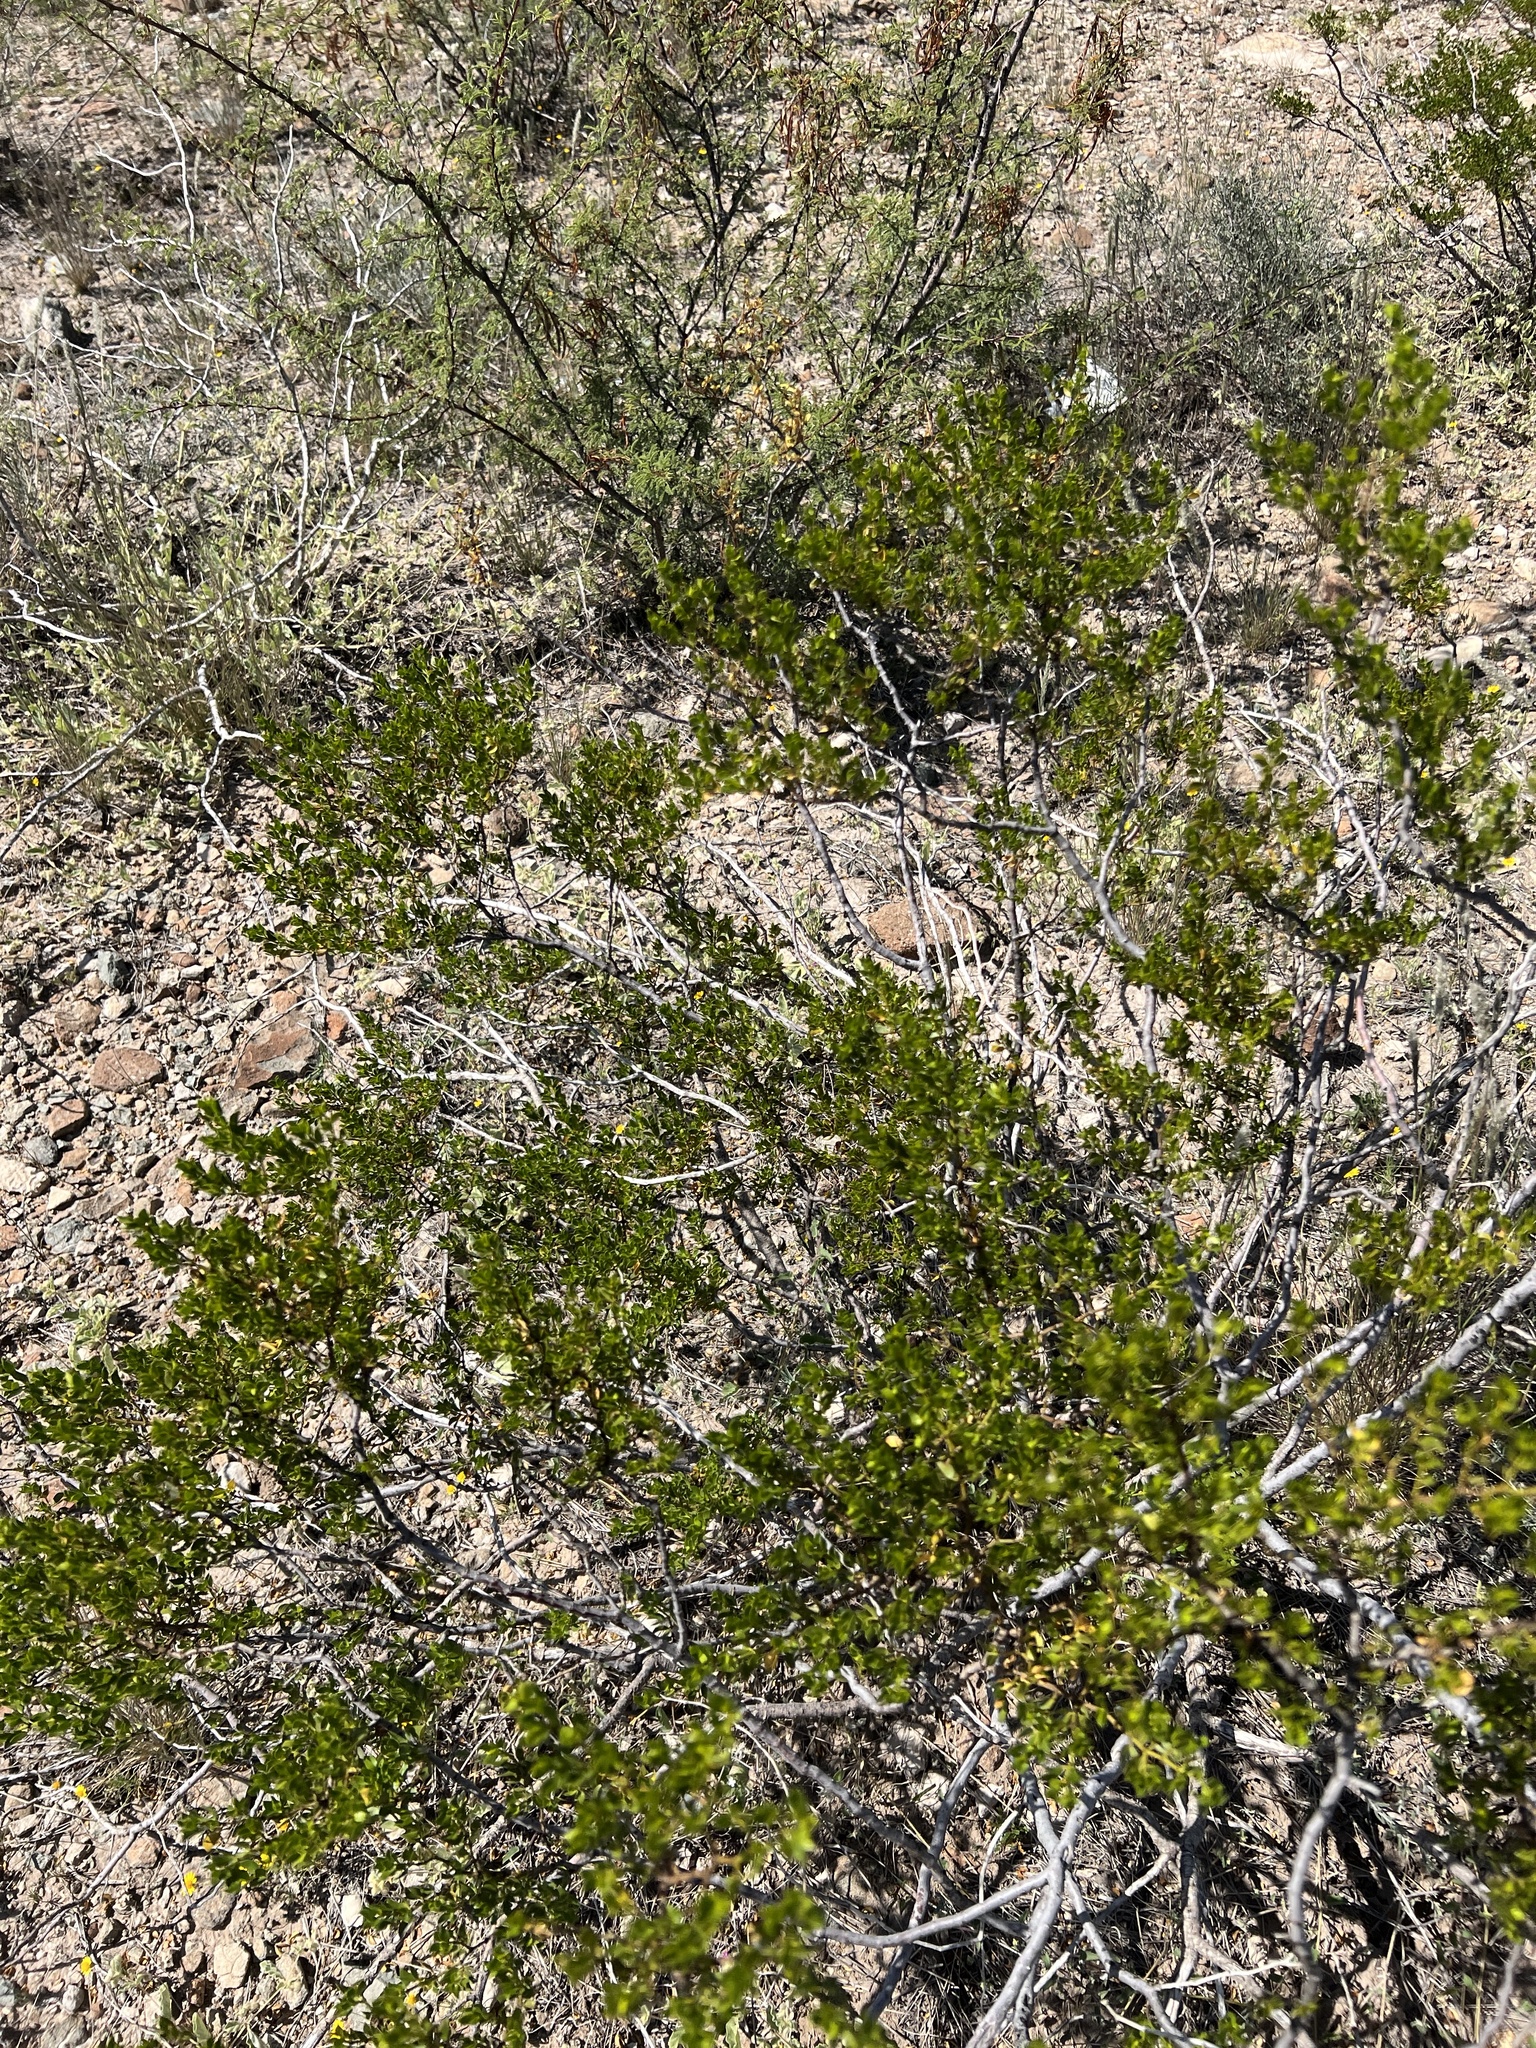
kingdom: Plantae
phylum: Tracheophyta
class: Magnoliopsida
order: Zygophyllales
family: Zygophyllaceae
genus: Larrea
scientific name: Larrea tridentata
